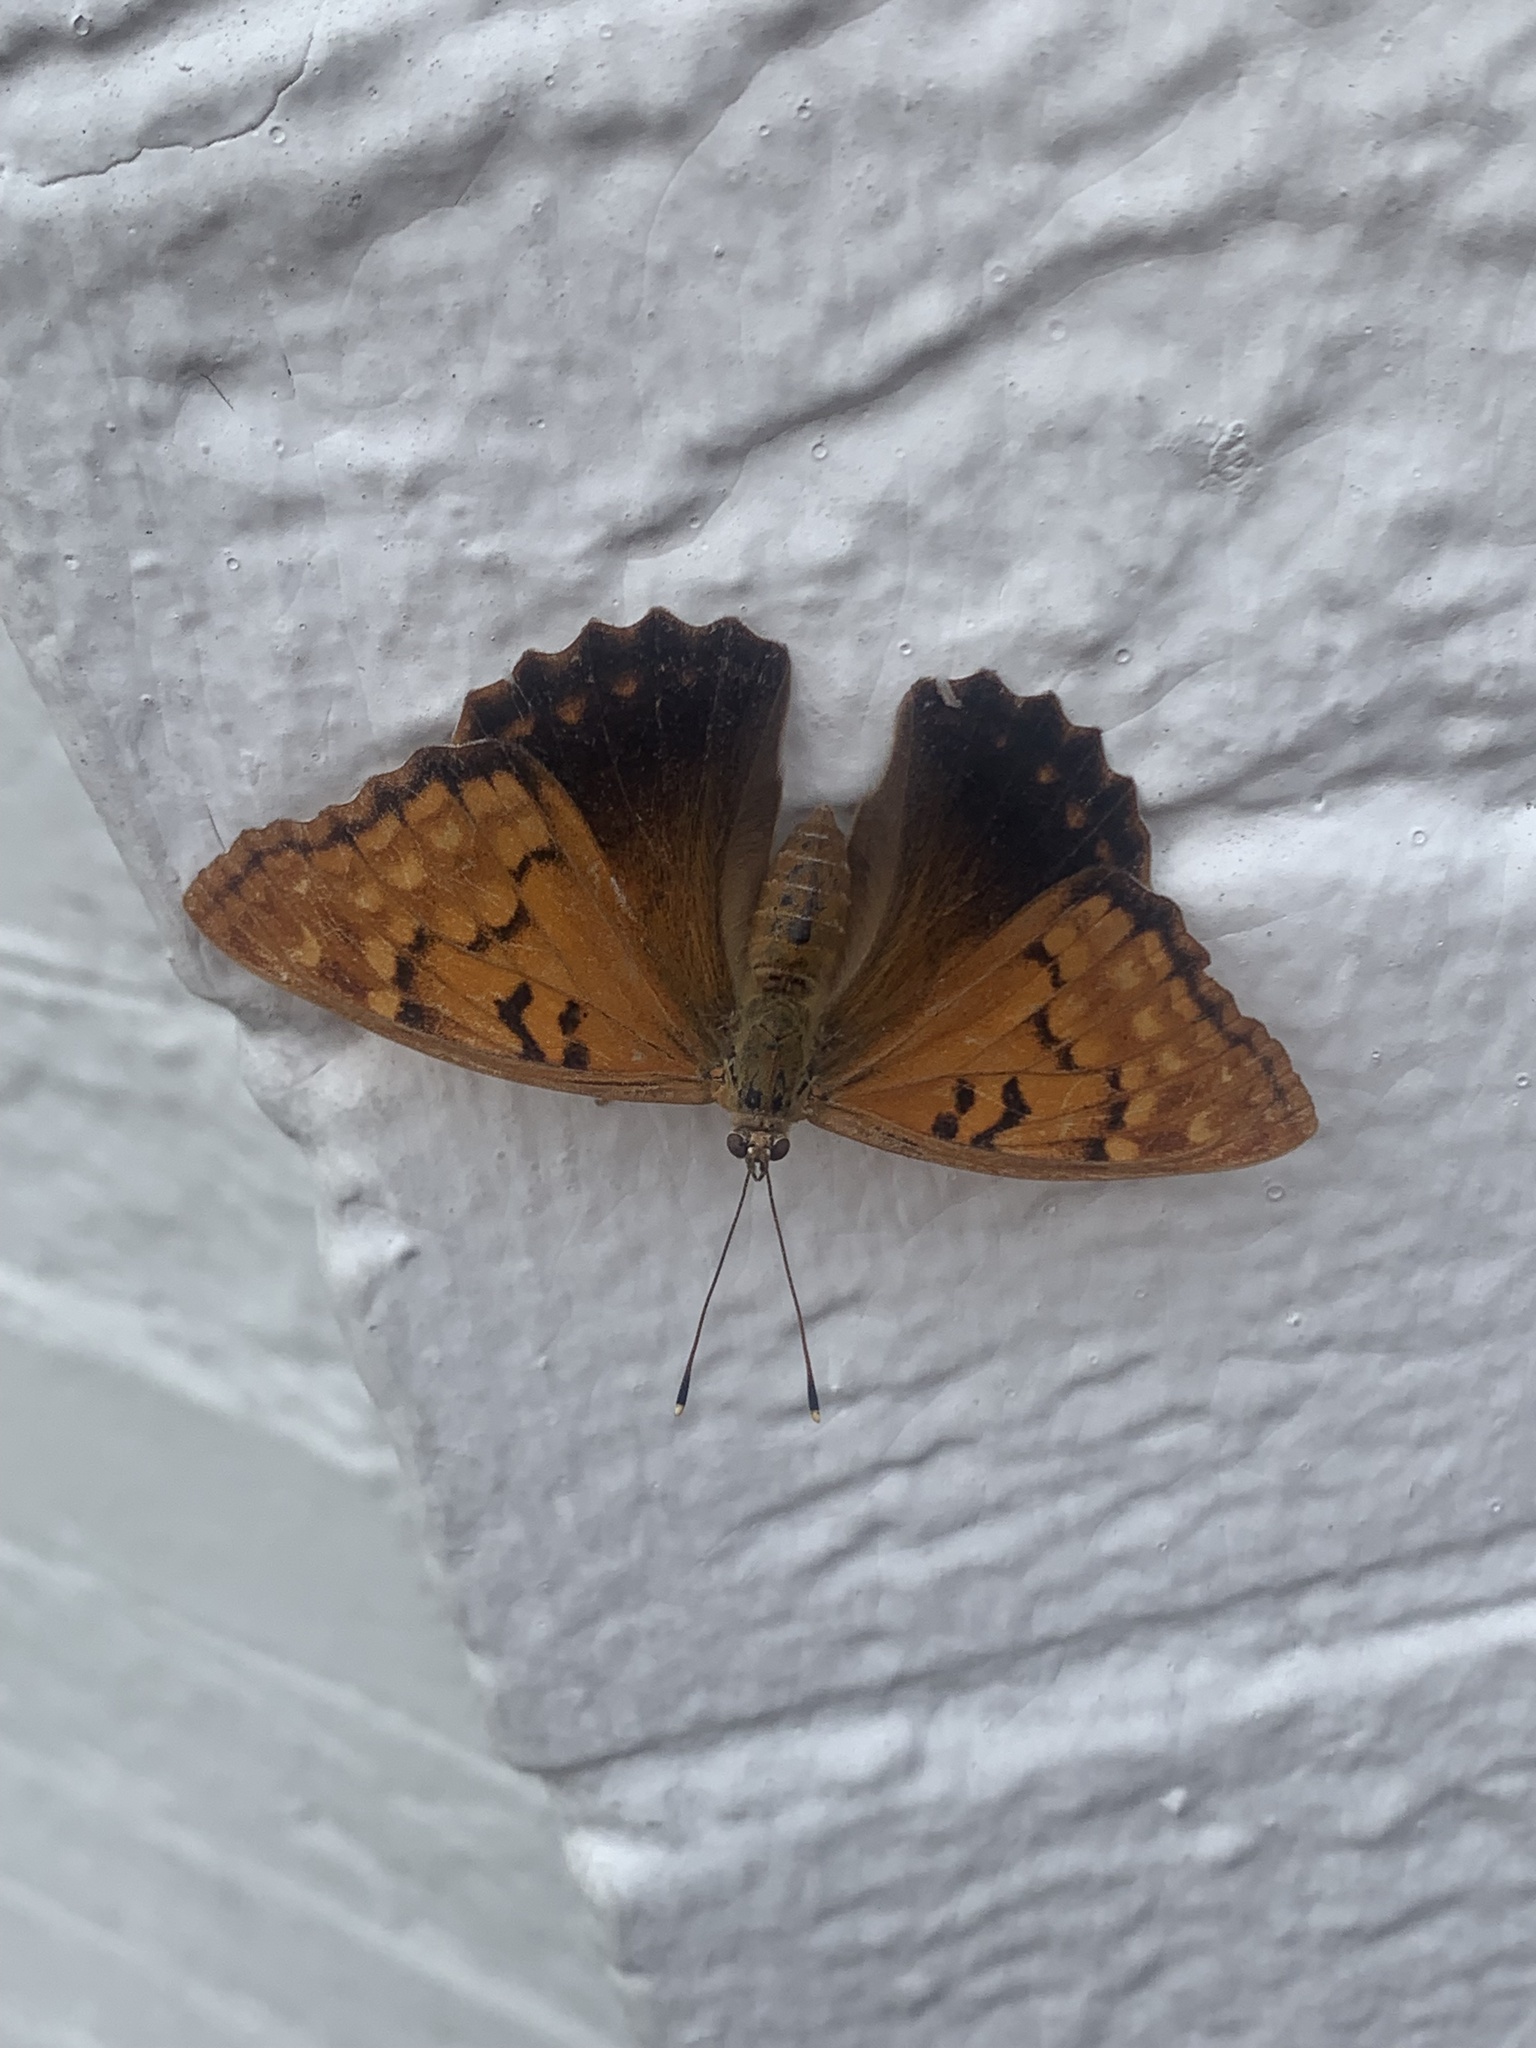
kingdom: Animalia
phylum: Arthropoda
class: Insecta
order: Lepidoptera
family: Nymphalidae
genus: Asterocampa
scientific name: Asterocampa clyton
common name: Tawny emperor
